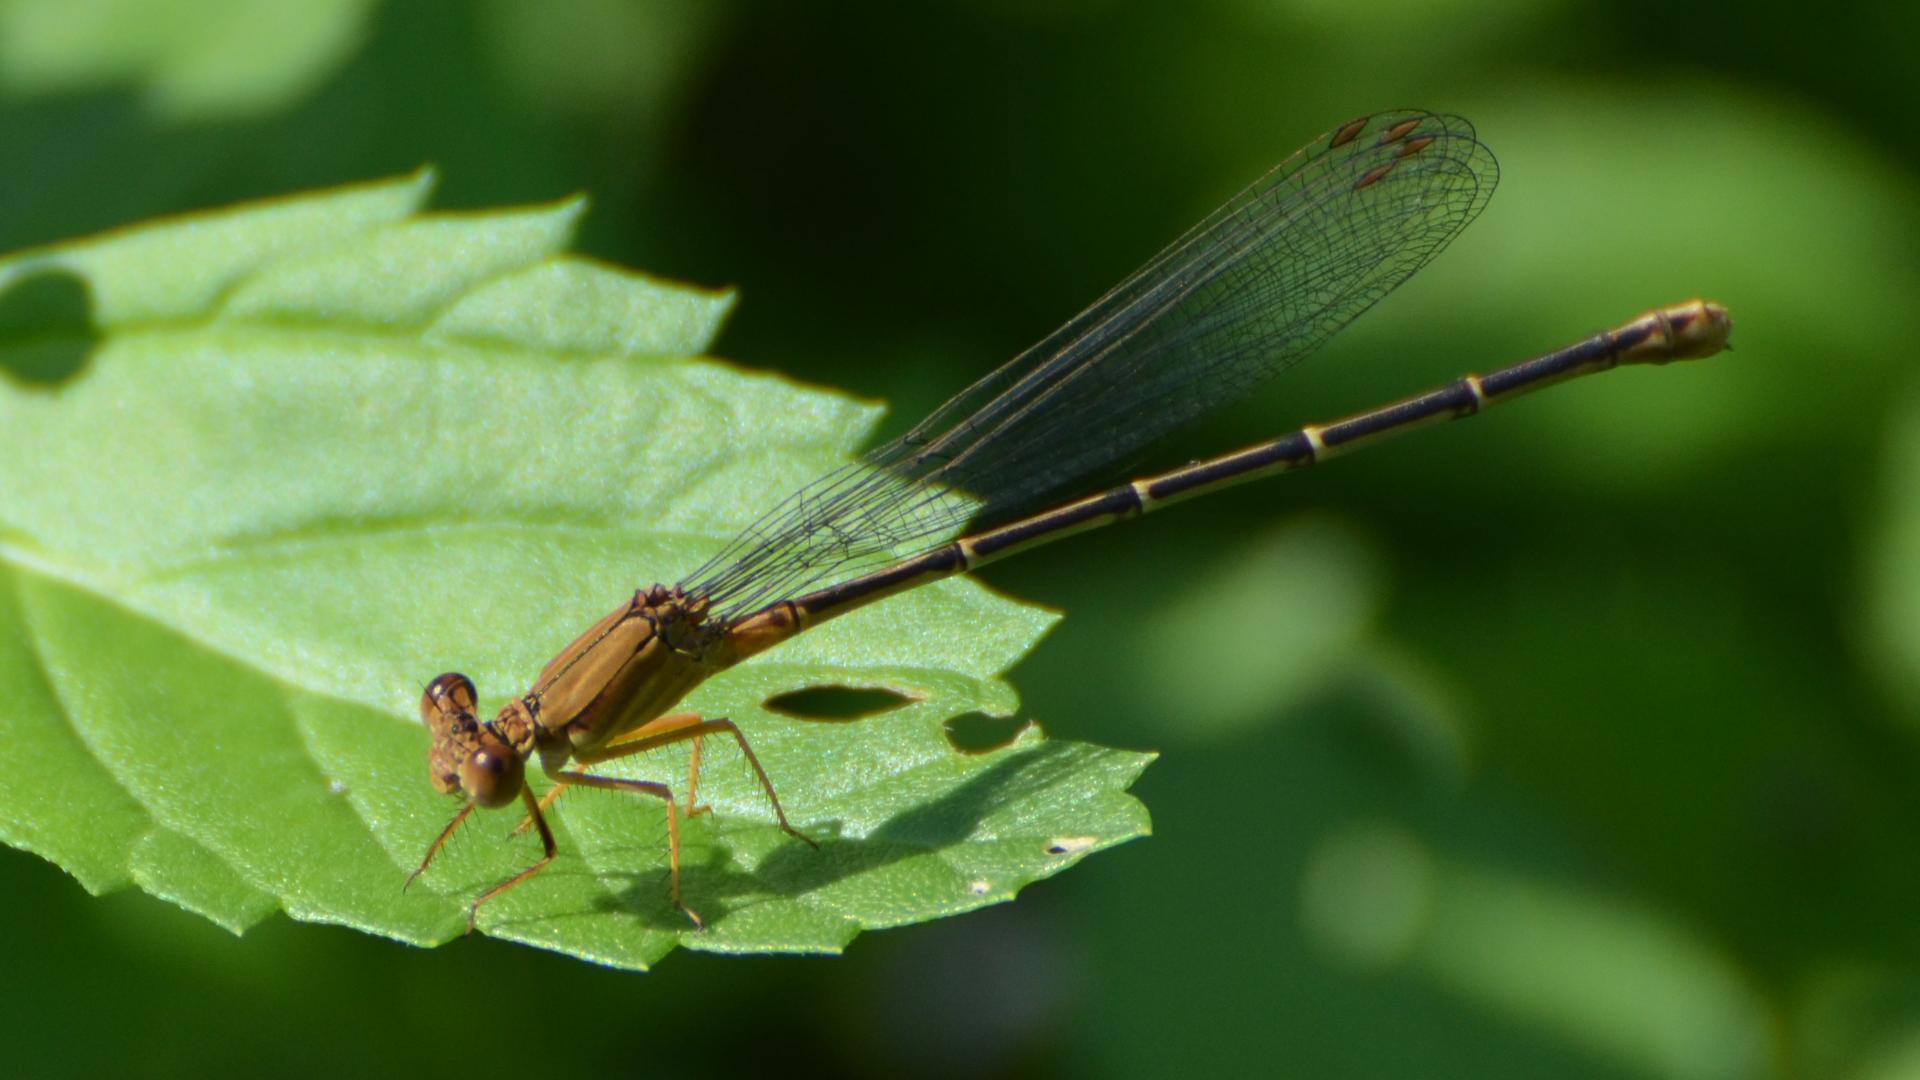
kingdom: Animalia
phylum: Arthropoda
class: Insecta
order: Odonata
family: Coenagrionidae
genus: Argia
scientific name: Argia apicalis
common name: Blue-fronted dancer
